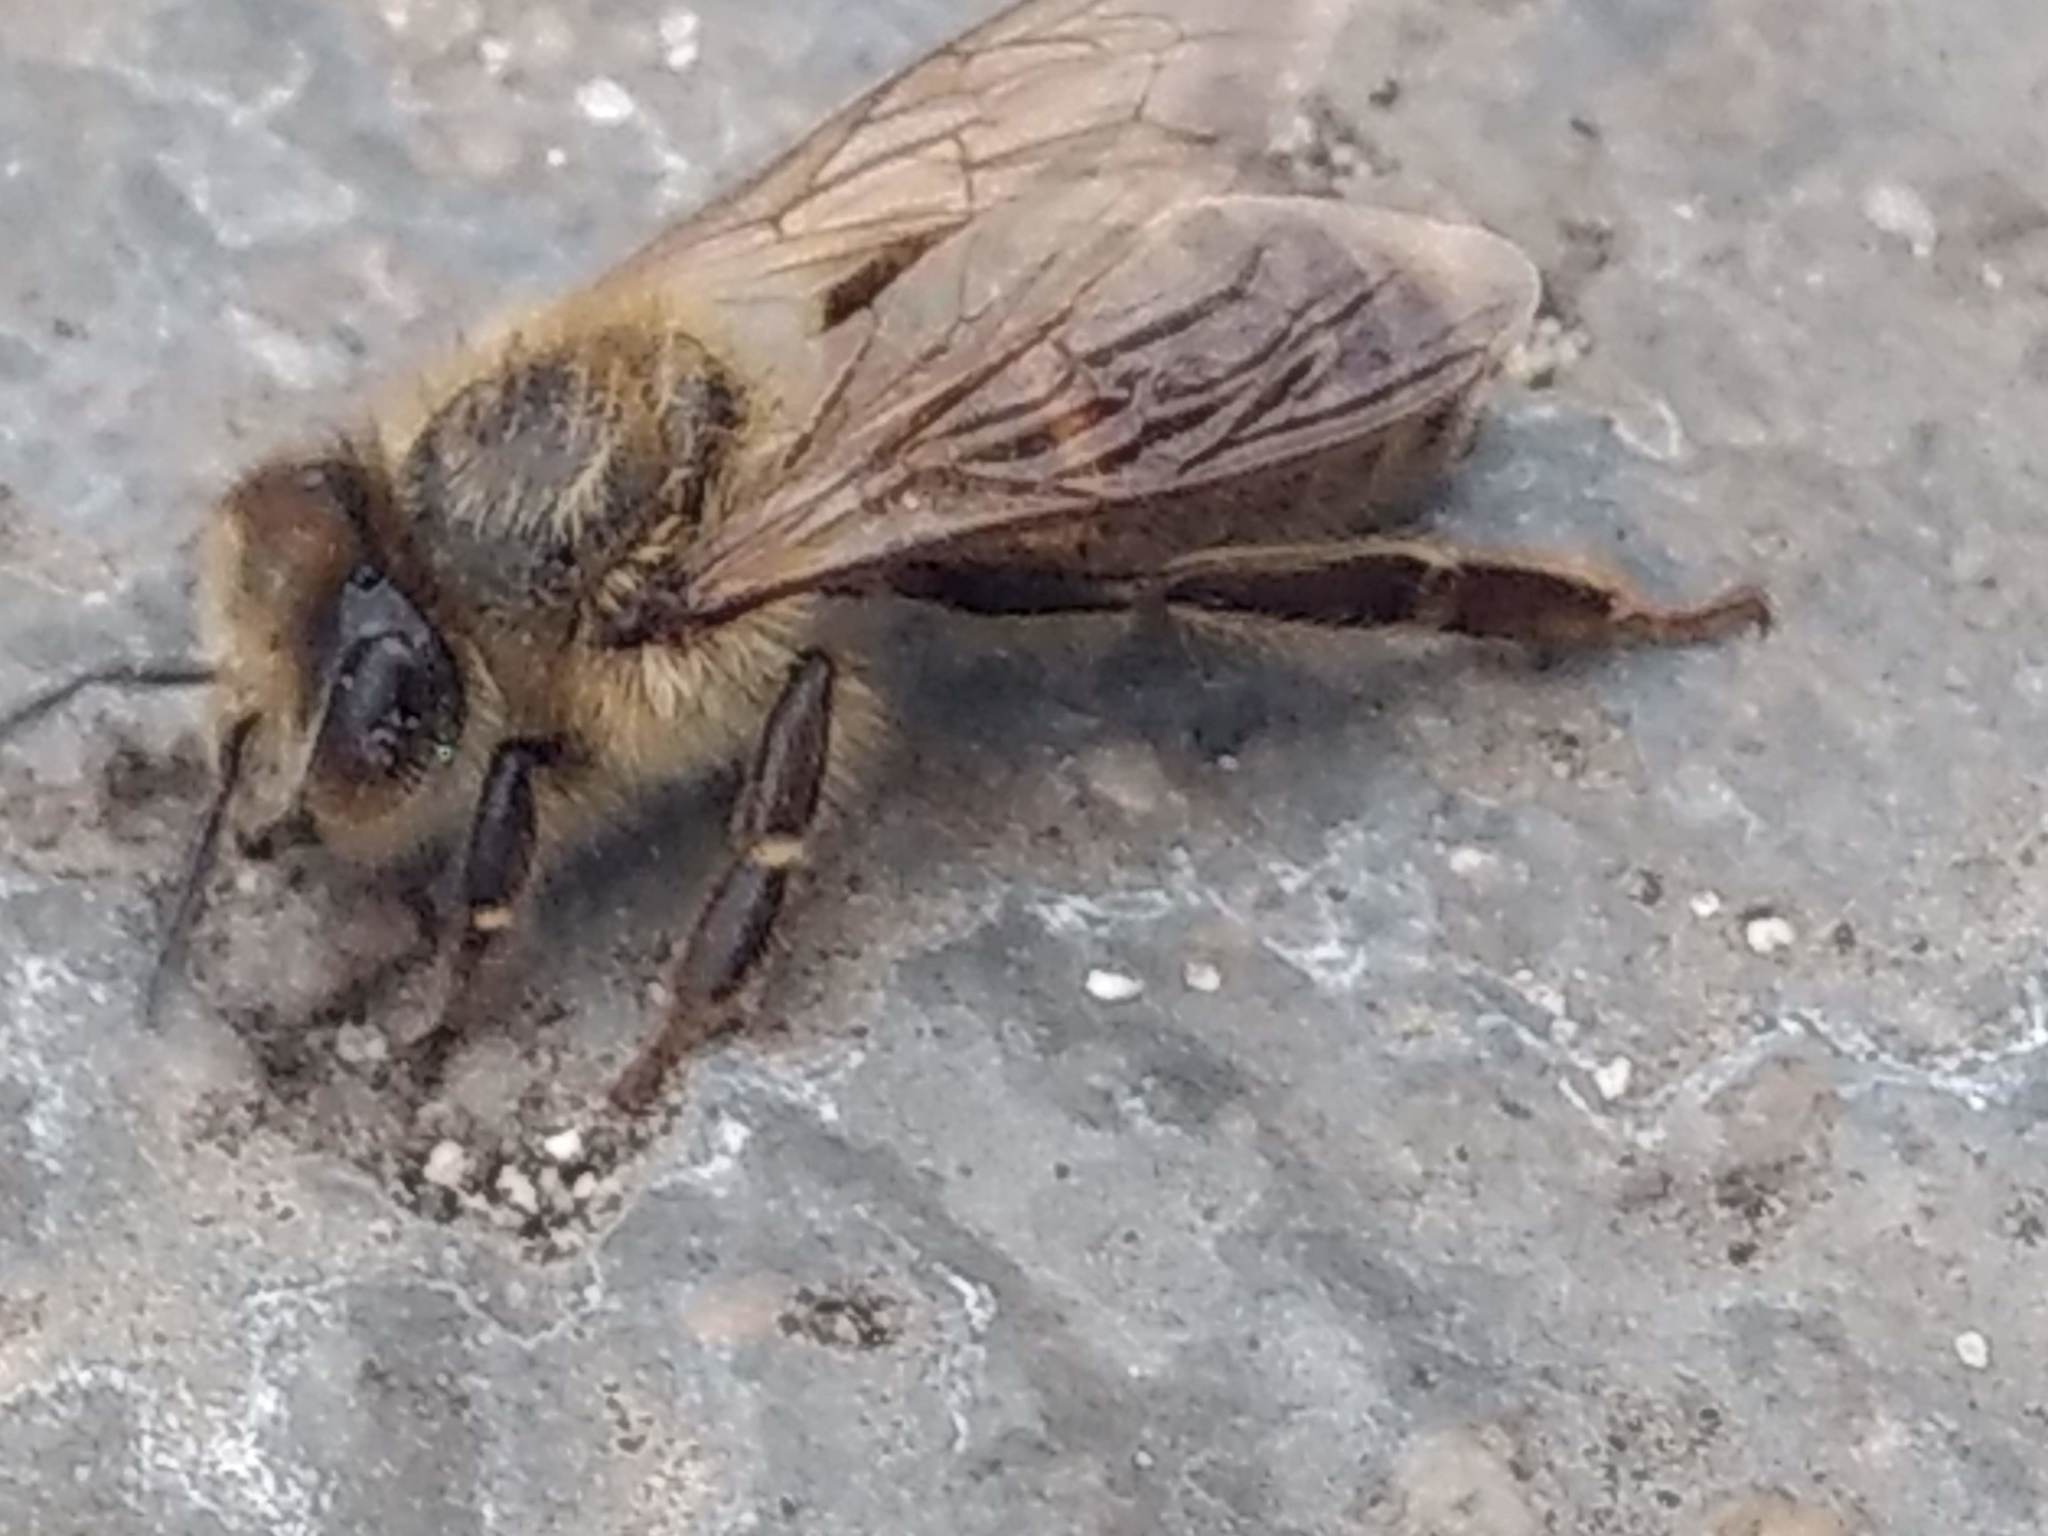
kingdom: Animalia
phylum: Arthropoda
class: Insecta
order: Hymenoptera
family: Apidae
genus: Apis
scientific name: Apis mellifera
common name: Honey bee
